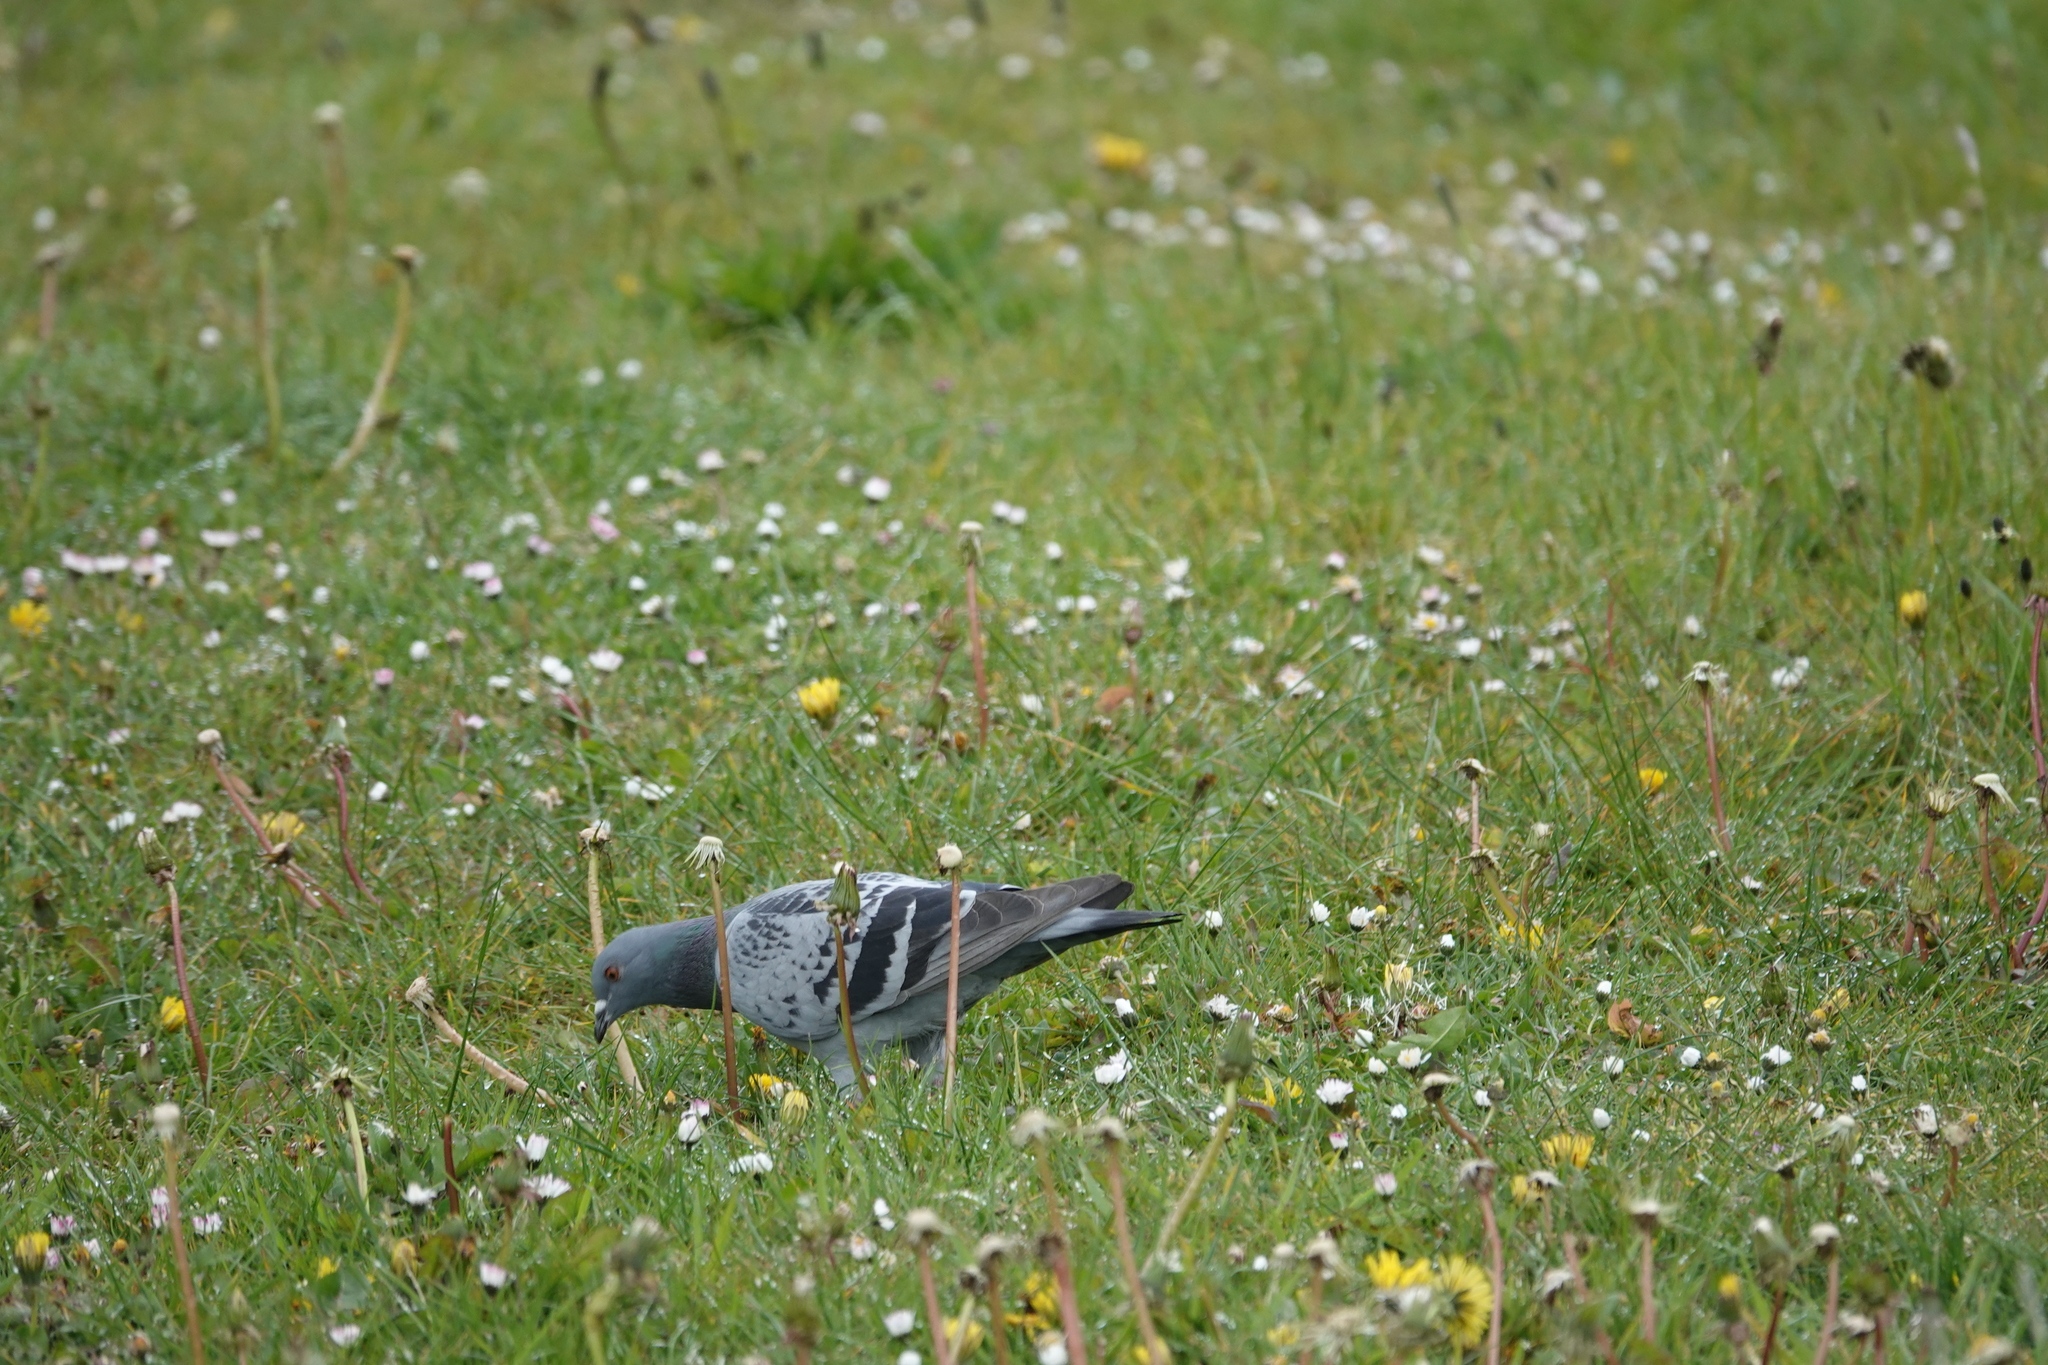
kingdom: Animalia
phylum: Chordata
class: Aves
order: Columbiformes
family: Columbidae
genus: Columba
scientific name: Columba livia
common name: Rock pigeon
